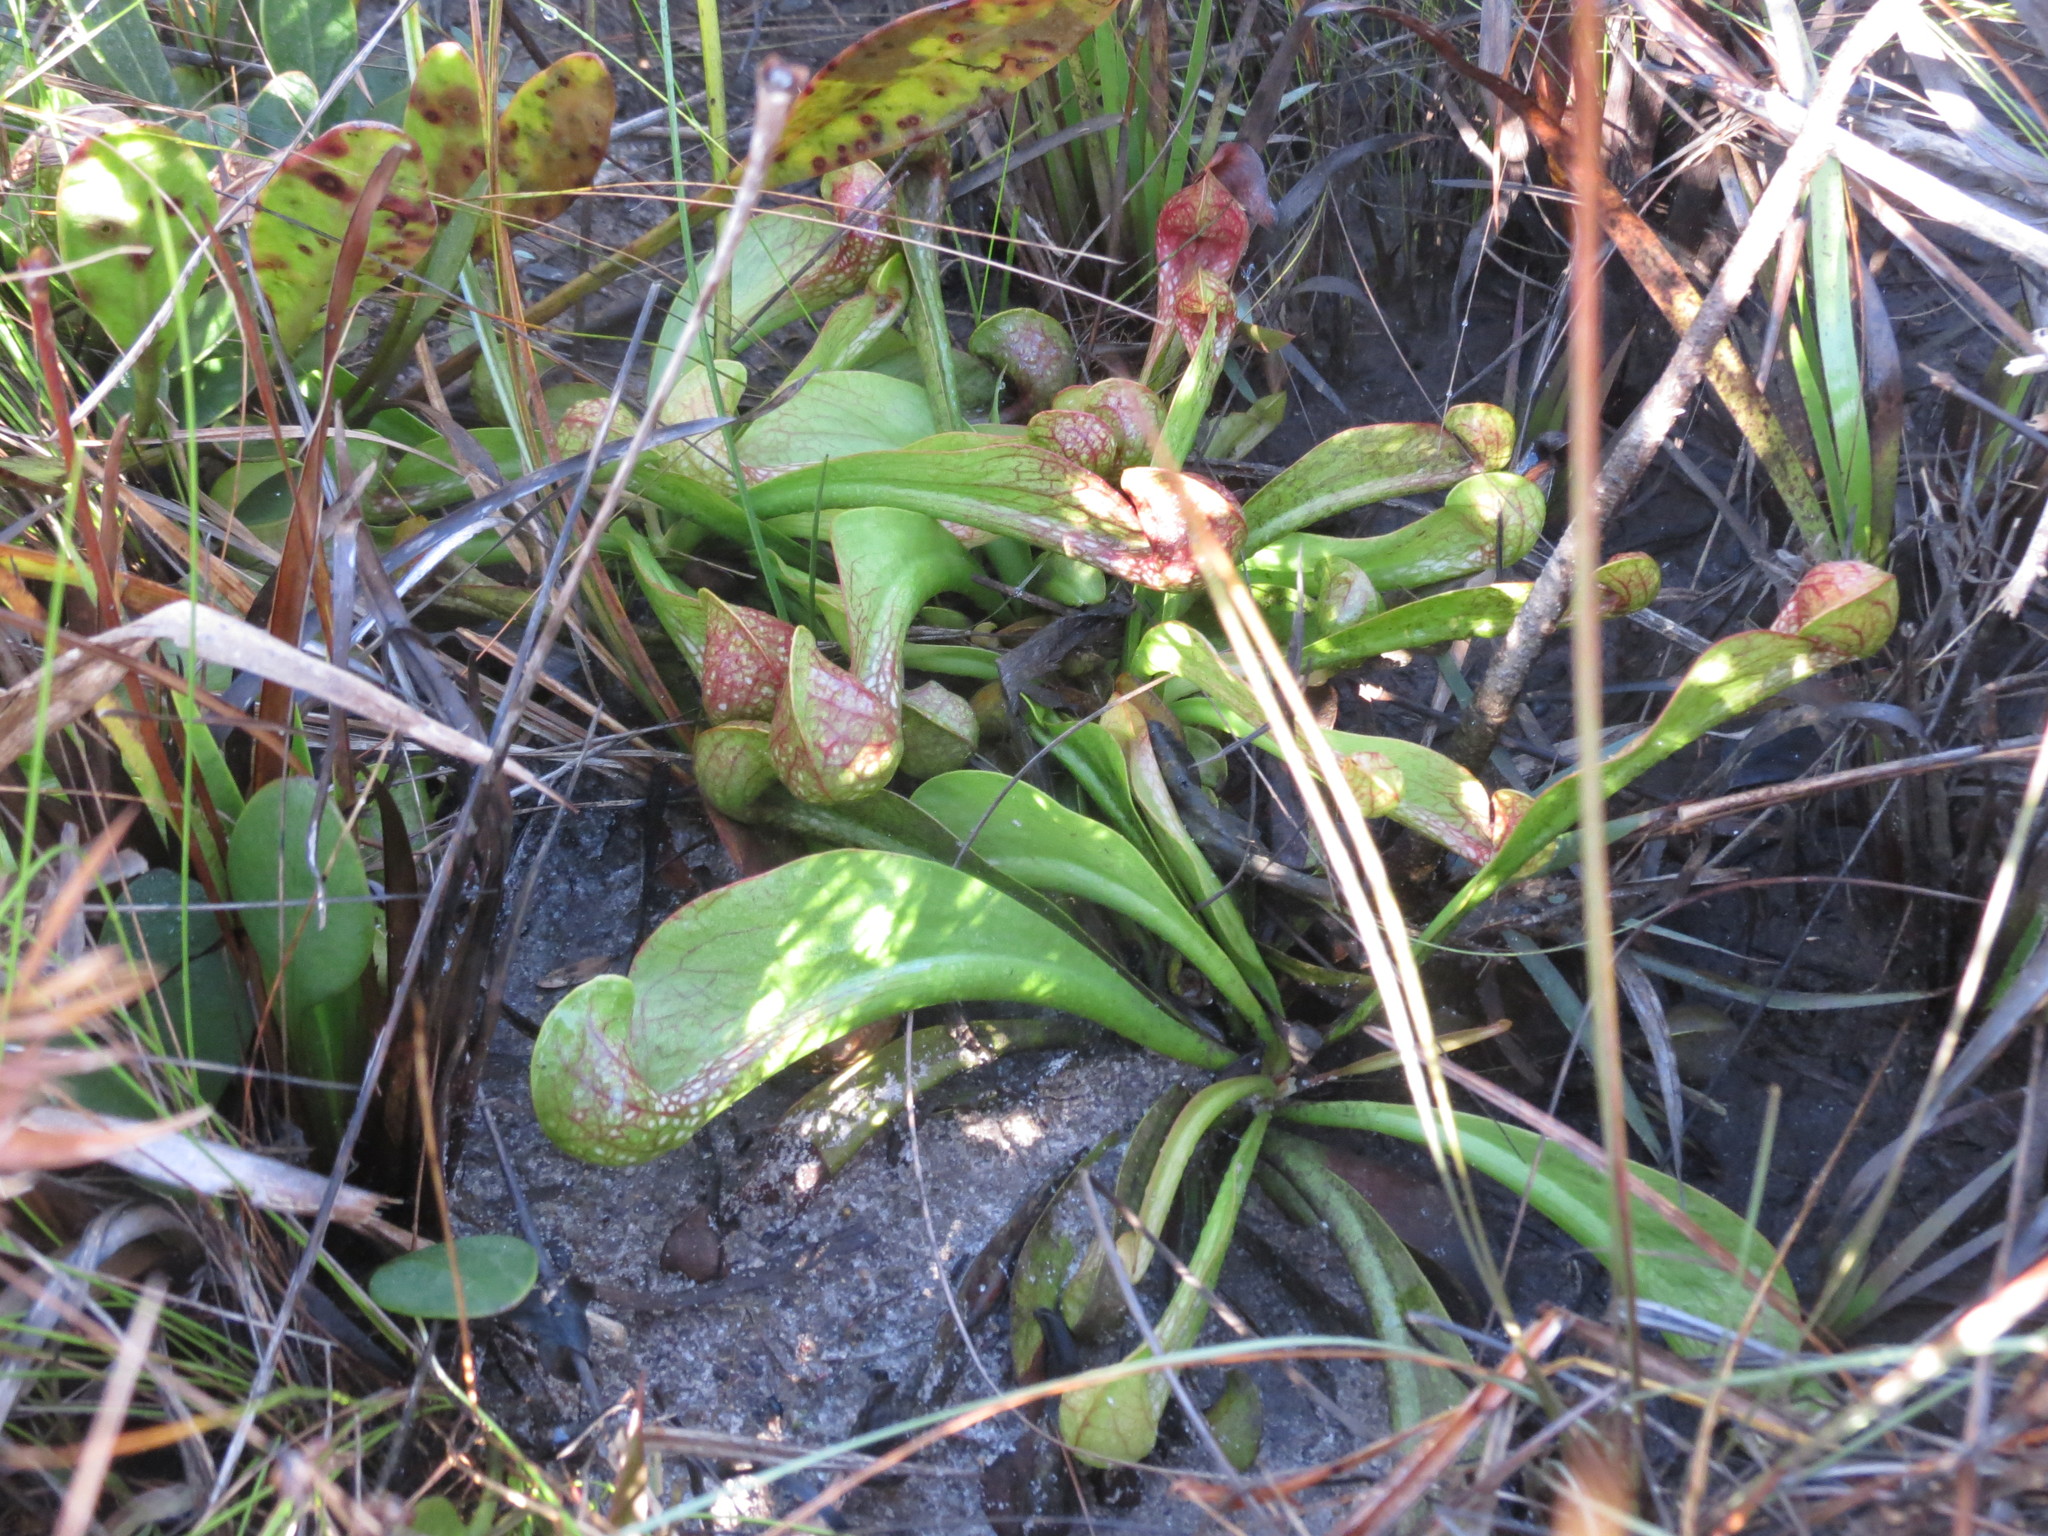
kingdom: Plantae
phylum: Tracheophyta
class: Magnoliopsida
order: Ericales
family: Sarraceniaceae
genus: Sarracenia
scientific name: Sarracenia psittacina
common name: Parrot pitcherplant
